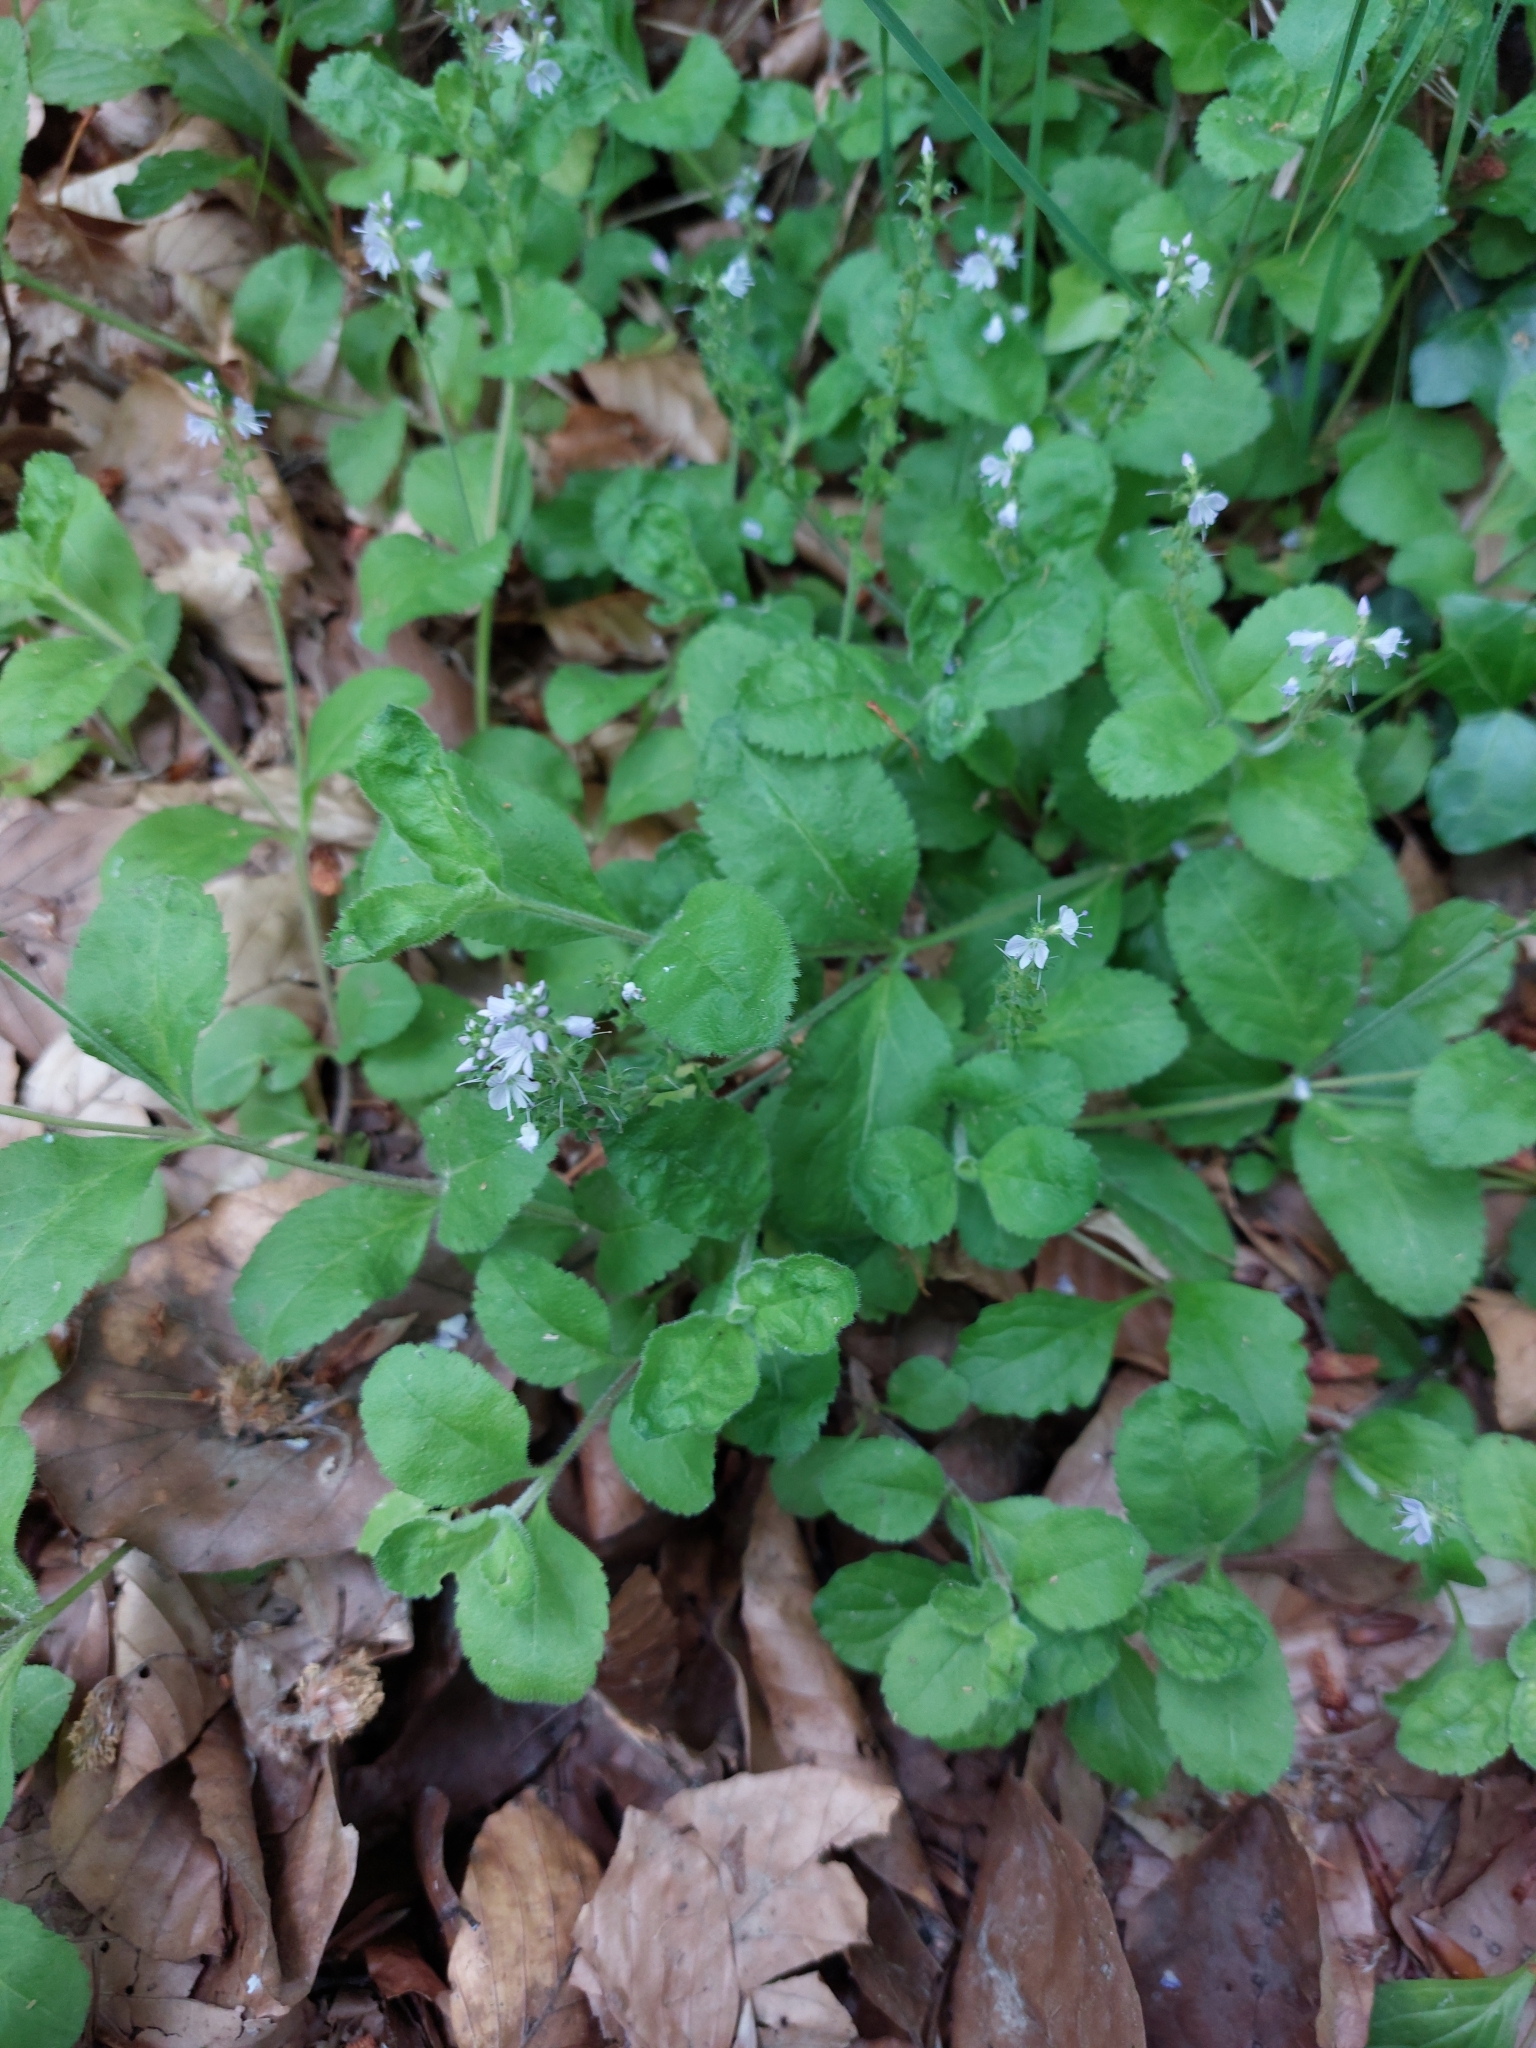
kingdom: Plantae
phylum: Tracheophyta
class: Magnoliopsida
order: Lamiales
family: Plantaginaceae
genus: Veronica
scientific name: Veronica officinalis
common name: Common speedwell
